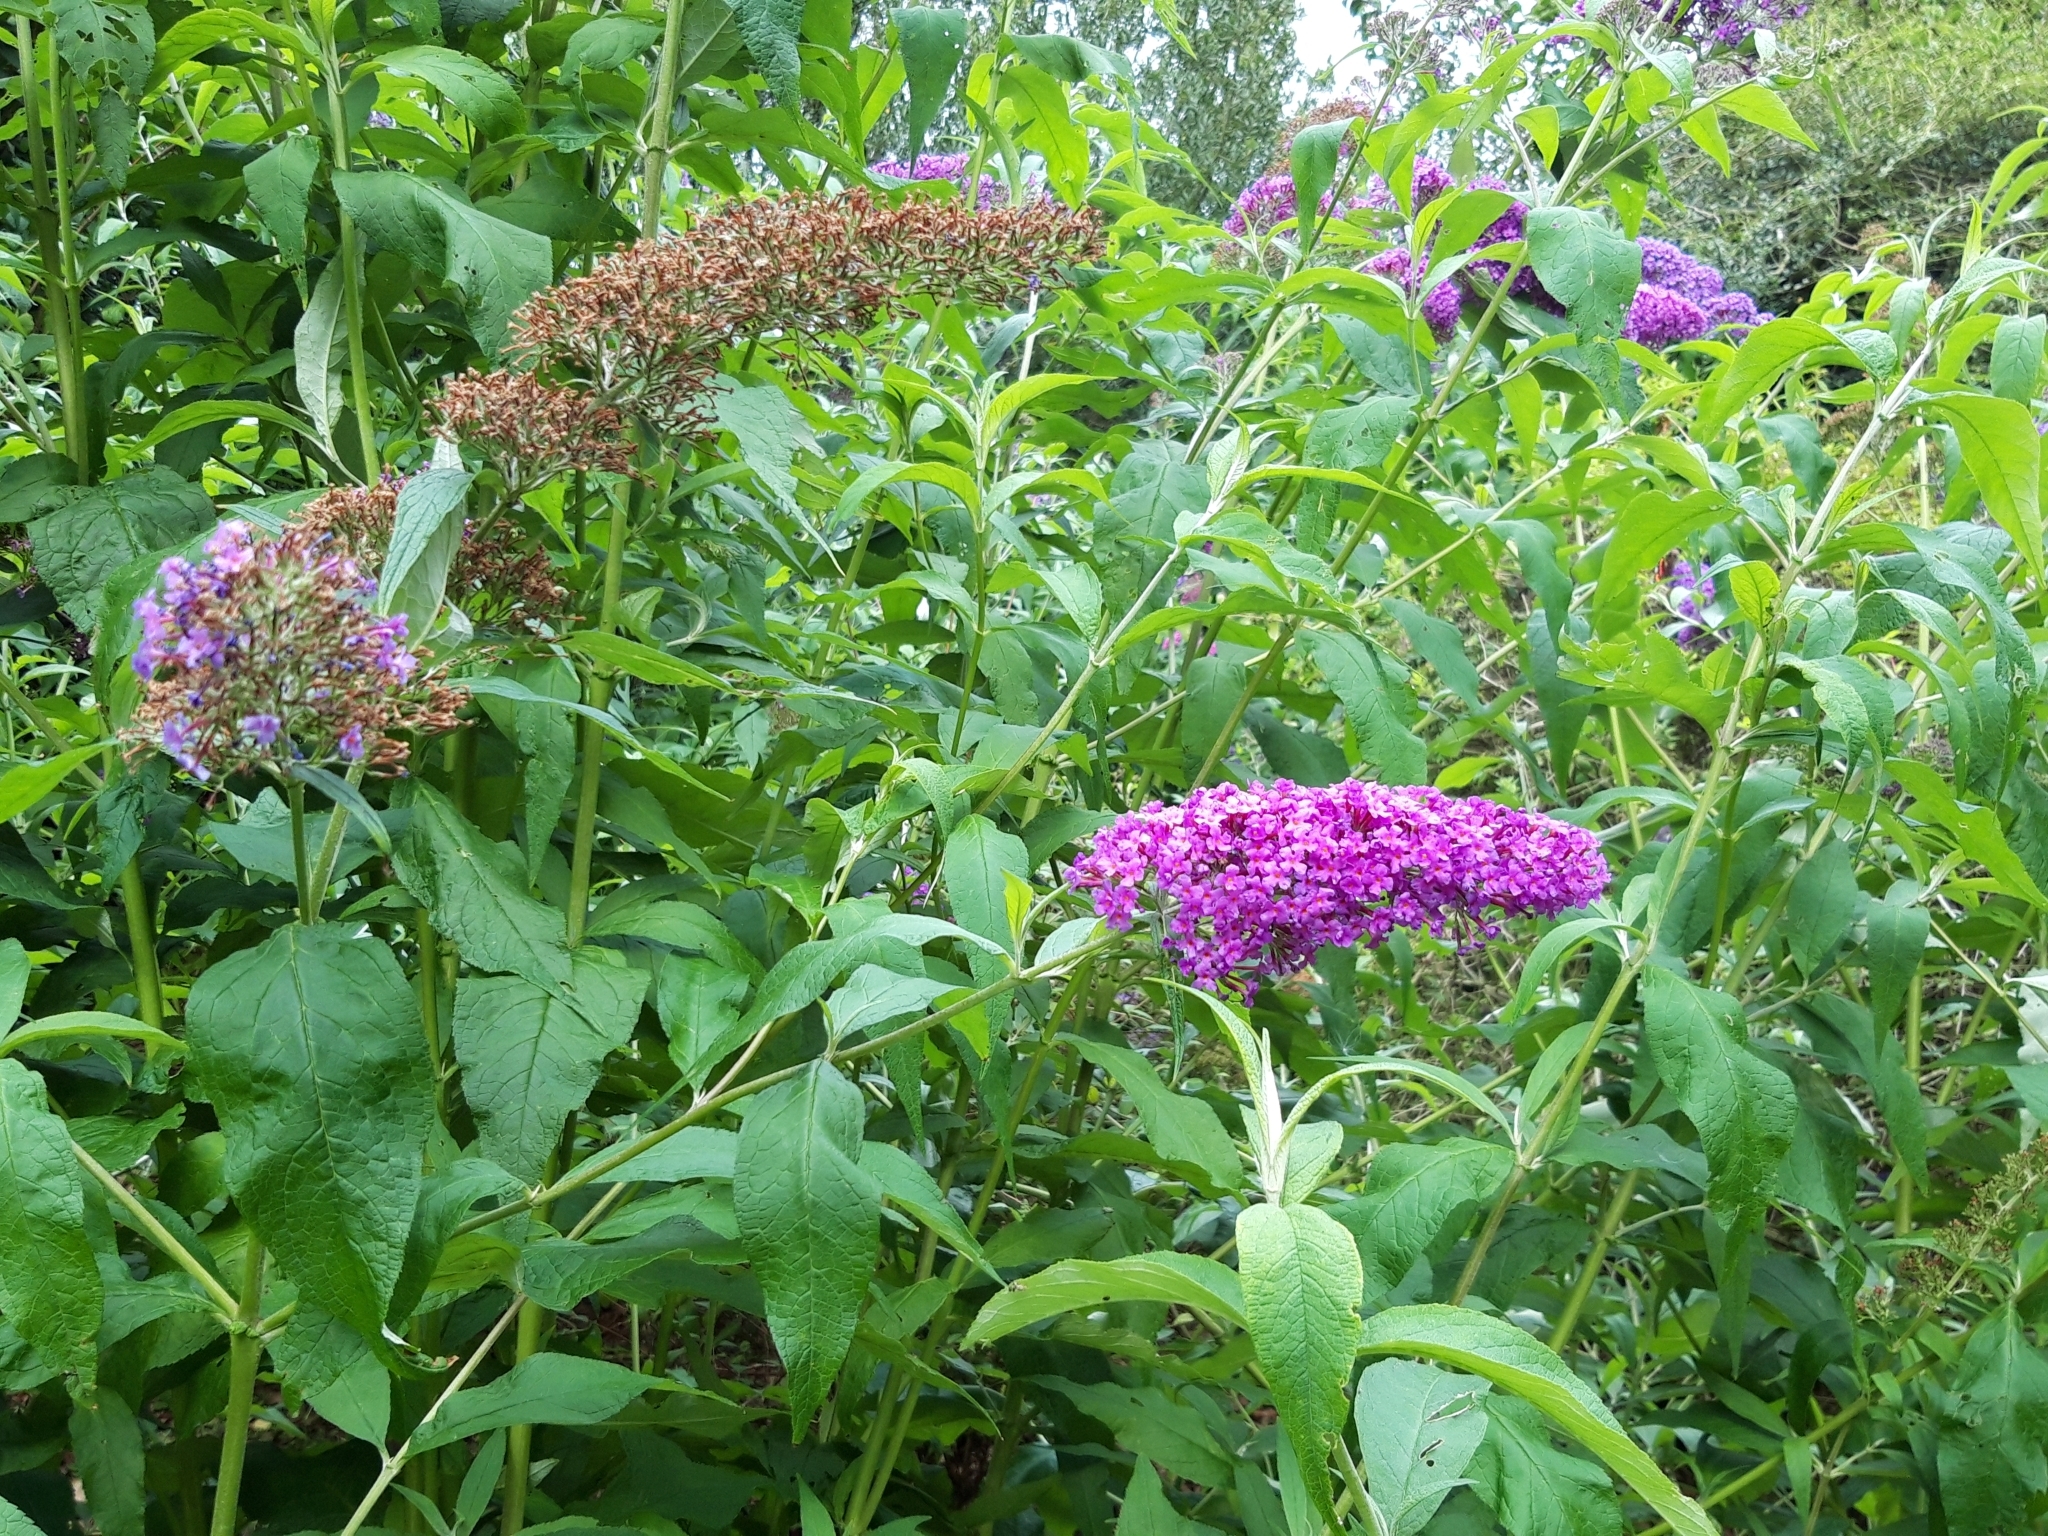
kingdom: Plantae
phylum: Tracheophyta
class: Magnoliopsida
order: Lamiales
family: Scrophulariaceae
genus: Buddleja
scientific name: Buddleja davidii
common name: Butterfly-bush
